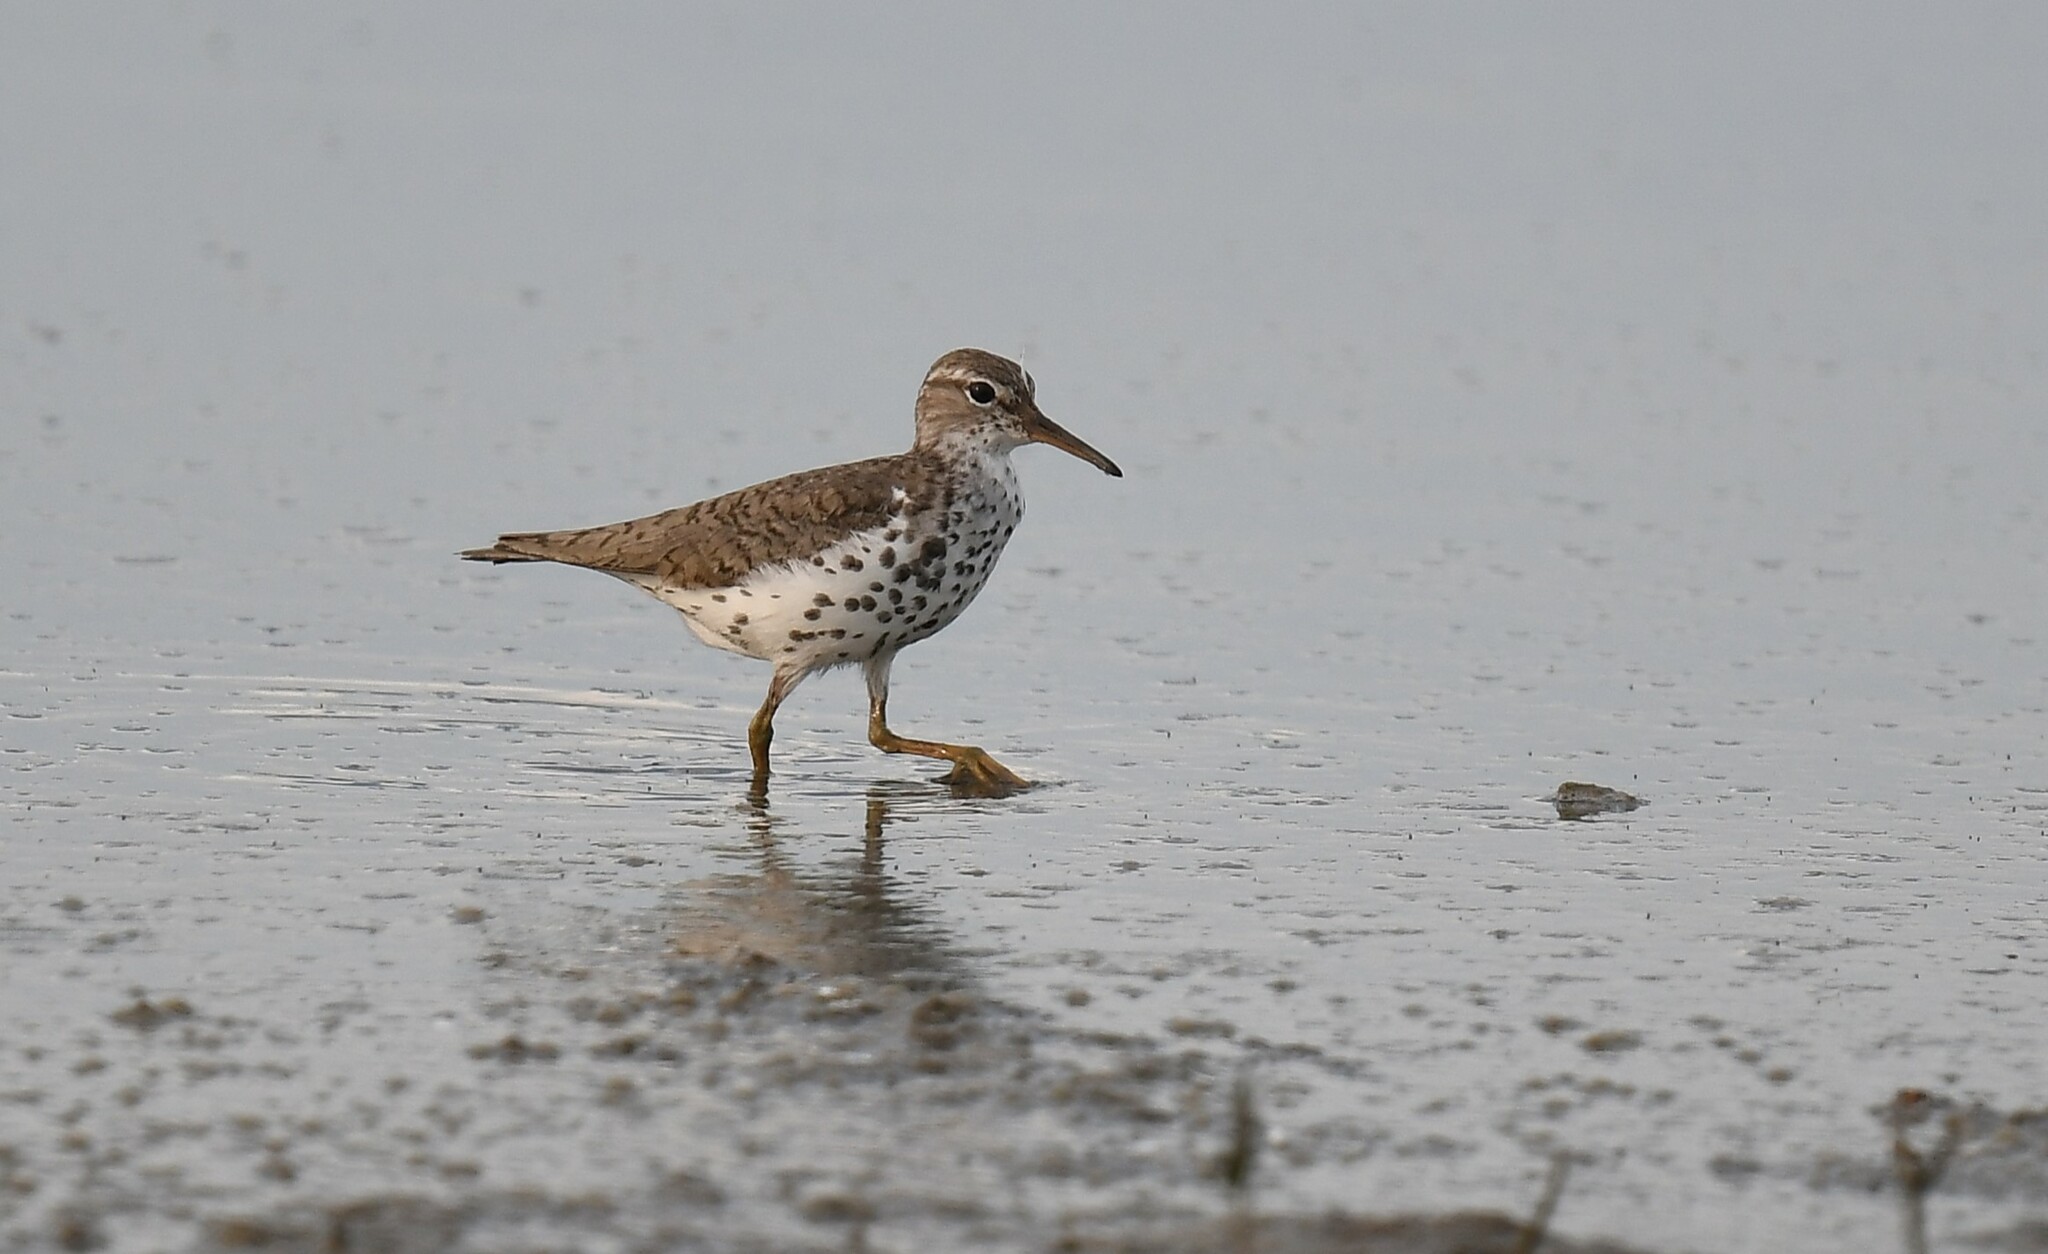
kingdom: Animalia
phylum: Chordata
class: Aves
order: Charadriiformes
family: Scolopacidae
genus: Actitis
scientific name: Actitis macularius
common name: Spotted sandpiper
